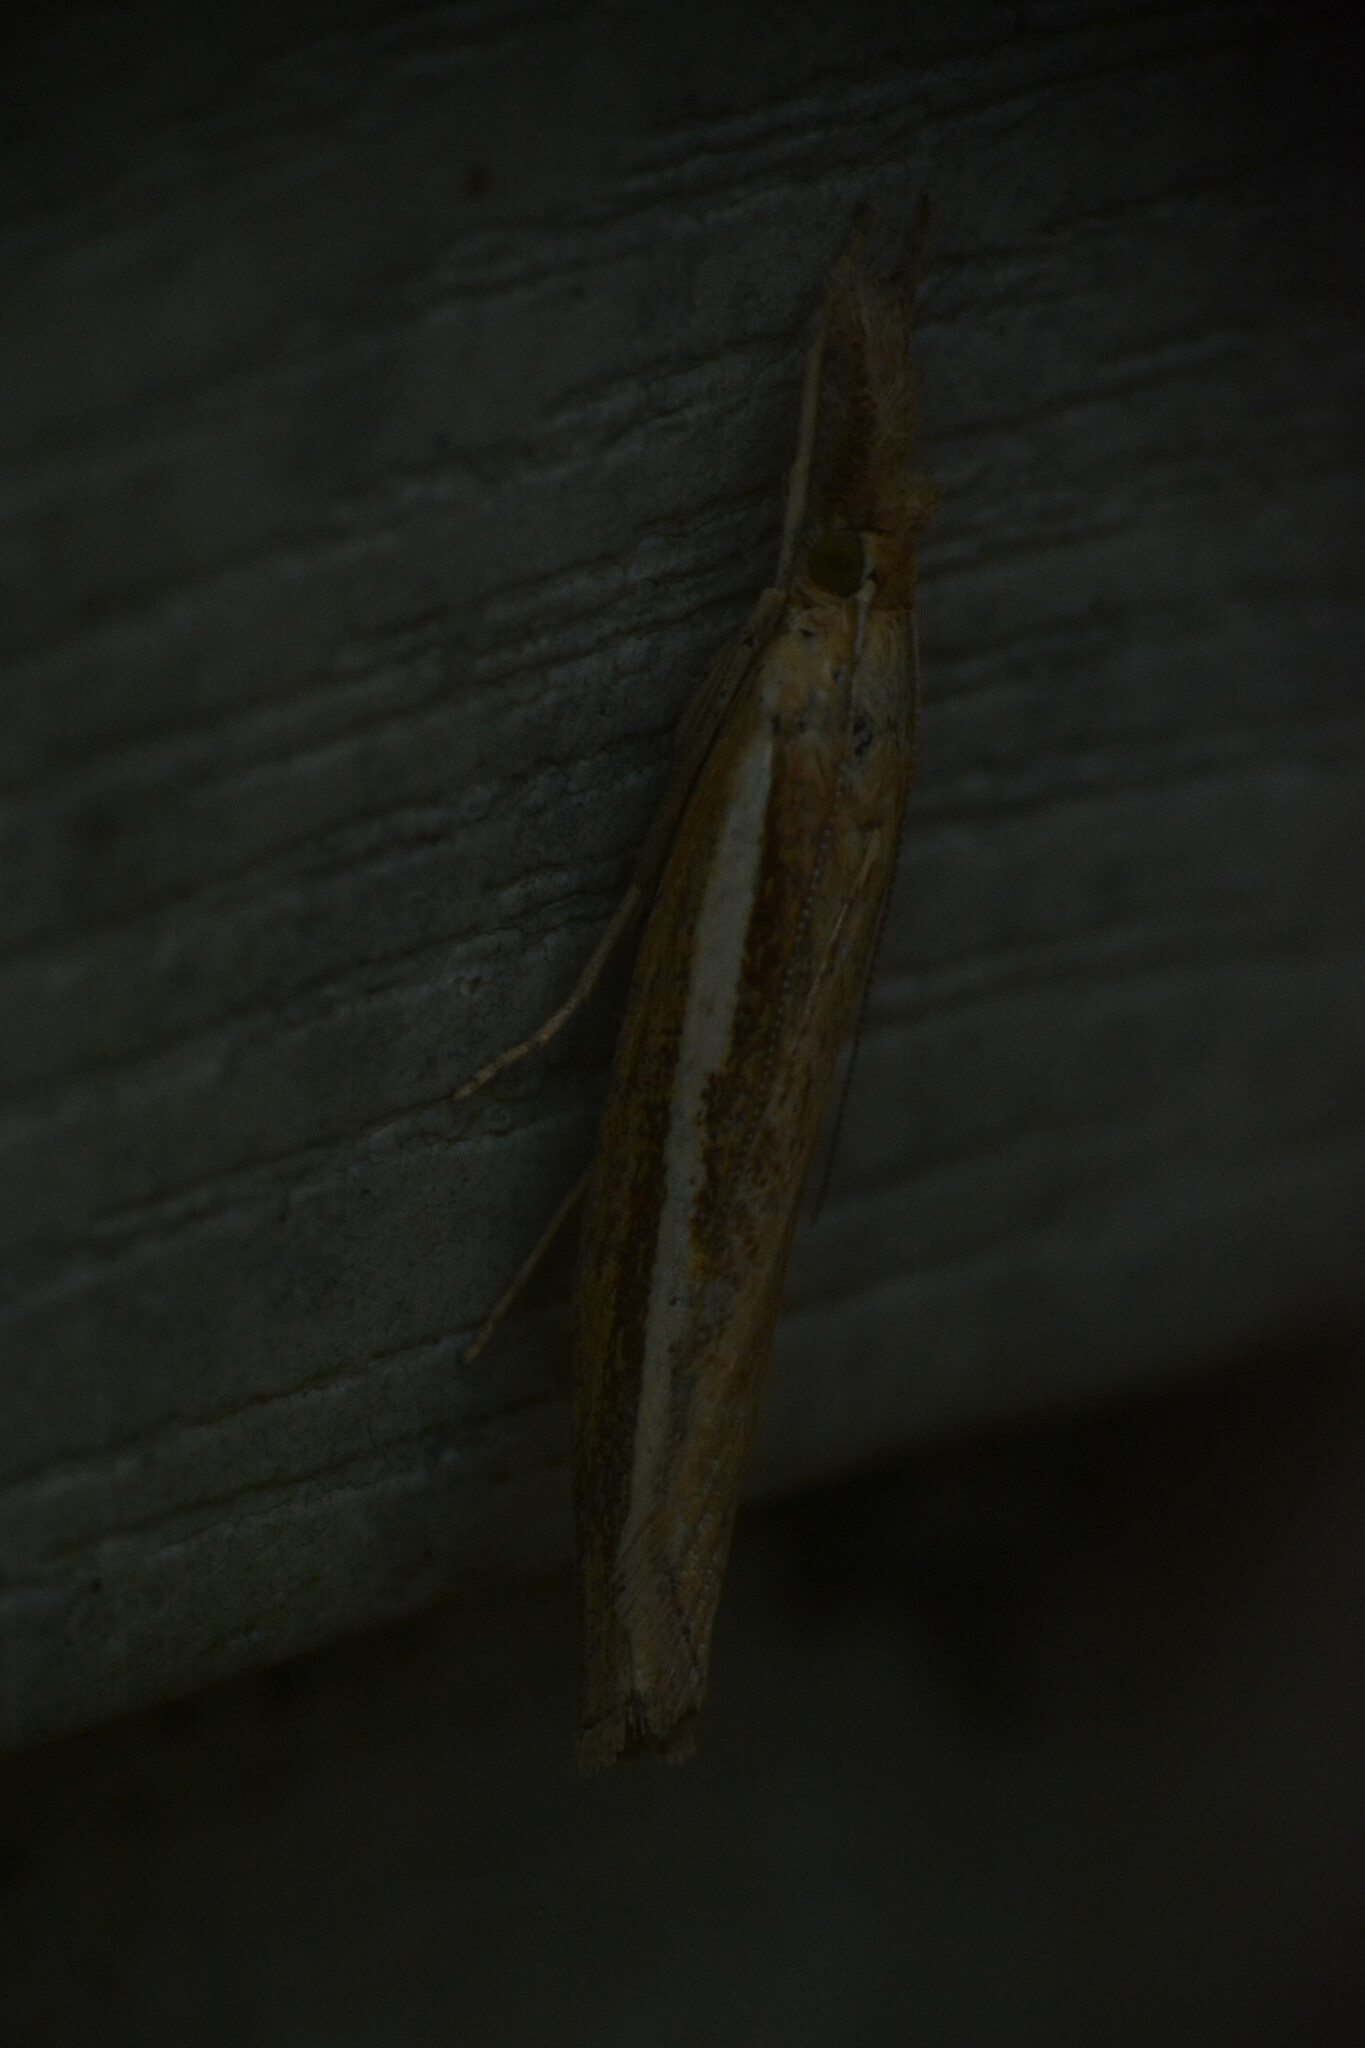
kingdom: Animalia
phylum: Arthropoda
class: Insecta
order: Lepidoptera
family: Crambidae
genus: Agriphila
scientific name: Agriphila tristellus
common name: Common grass-veneer
